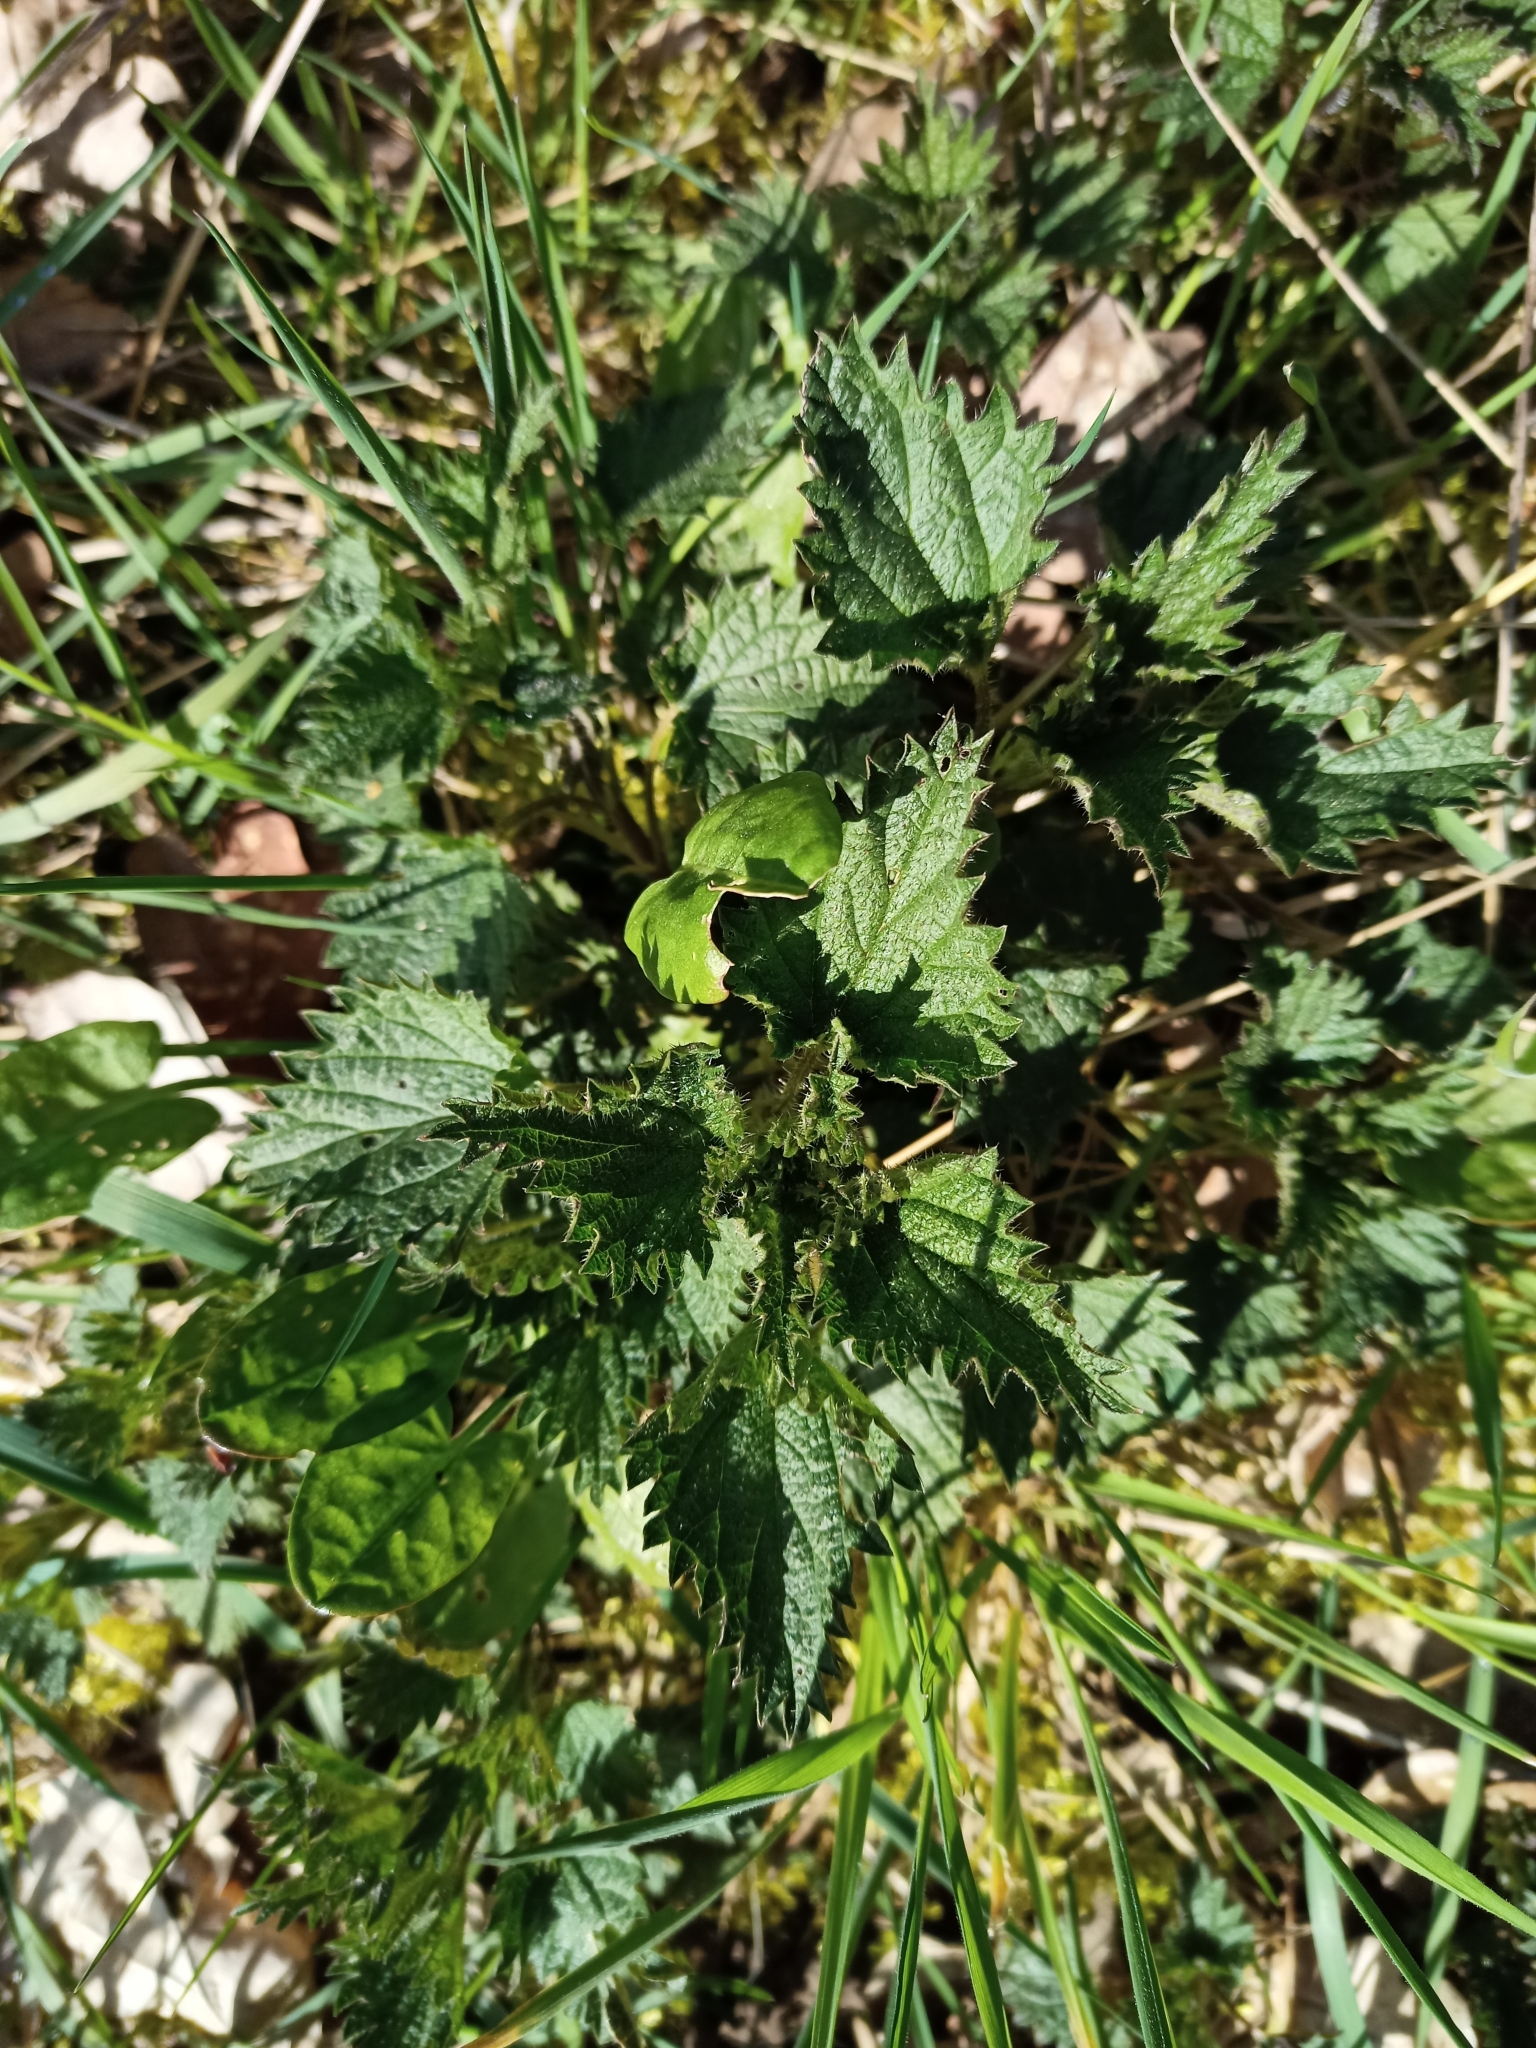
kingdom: Plantae
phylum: Tracheophyta
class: Magnoliopsida
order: Rosales
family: Urticaceae
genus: Urtica
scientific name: Urtica dioica
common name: Common nettle
